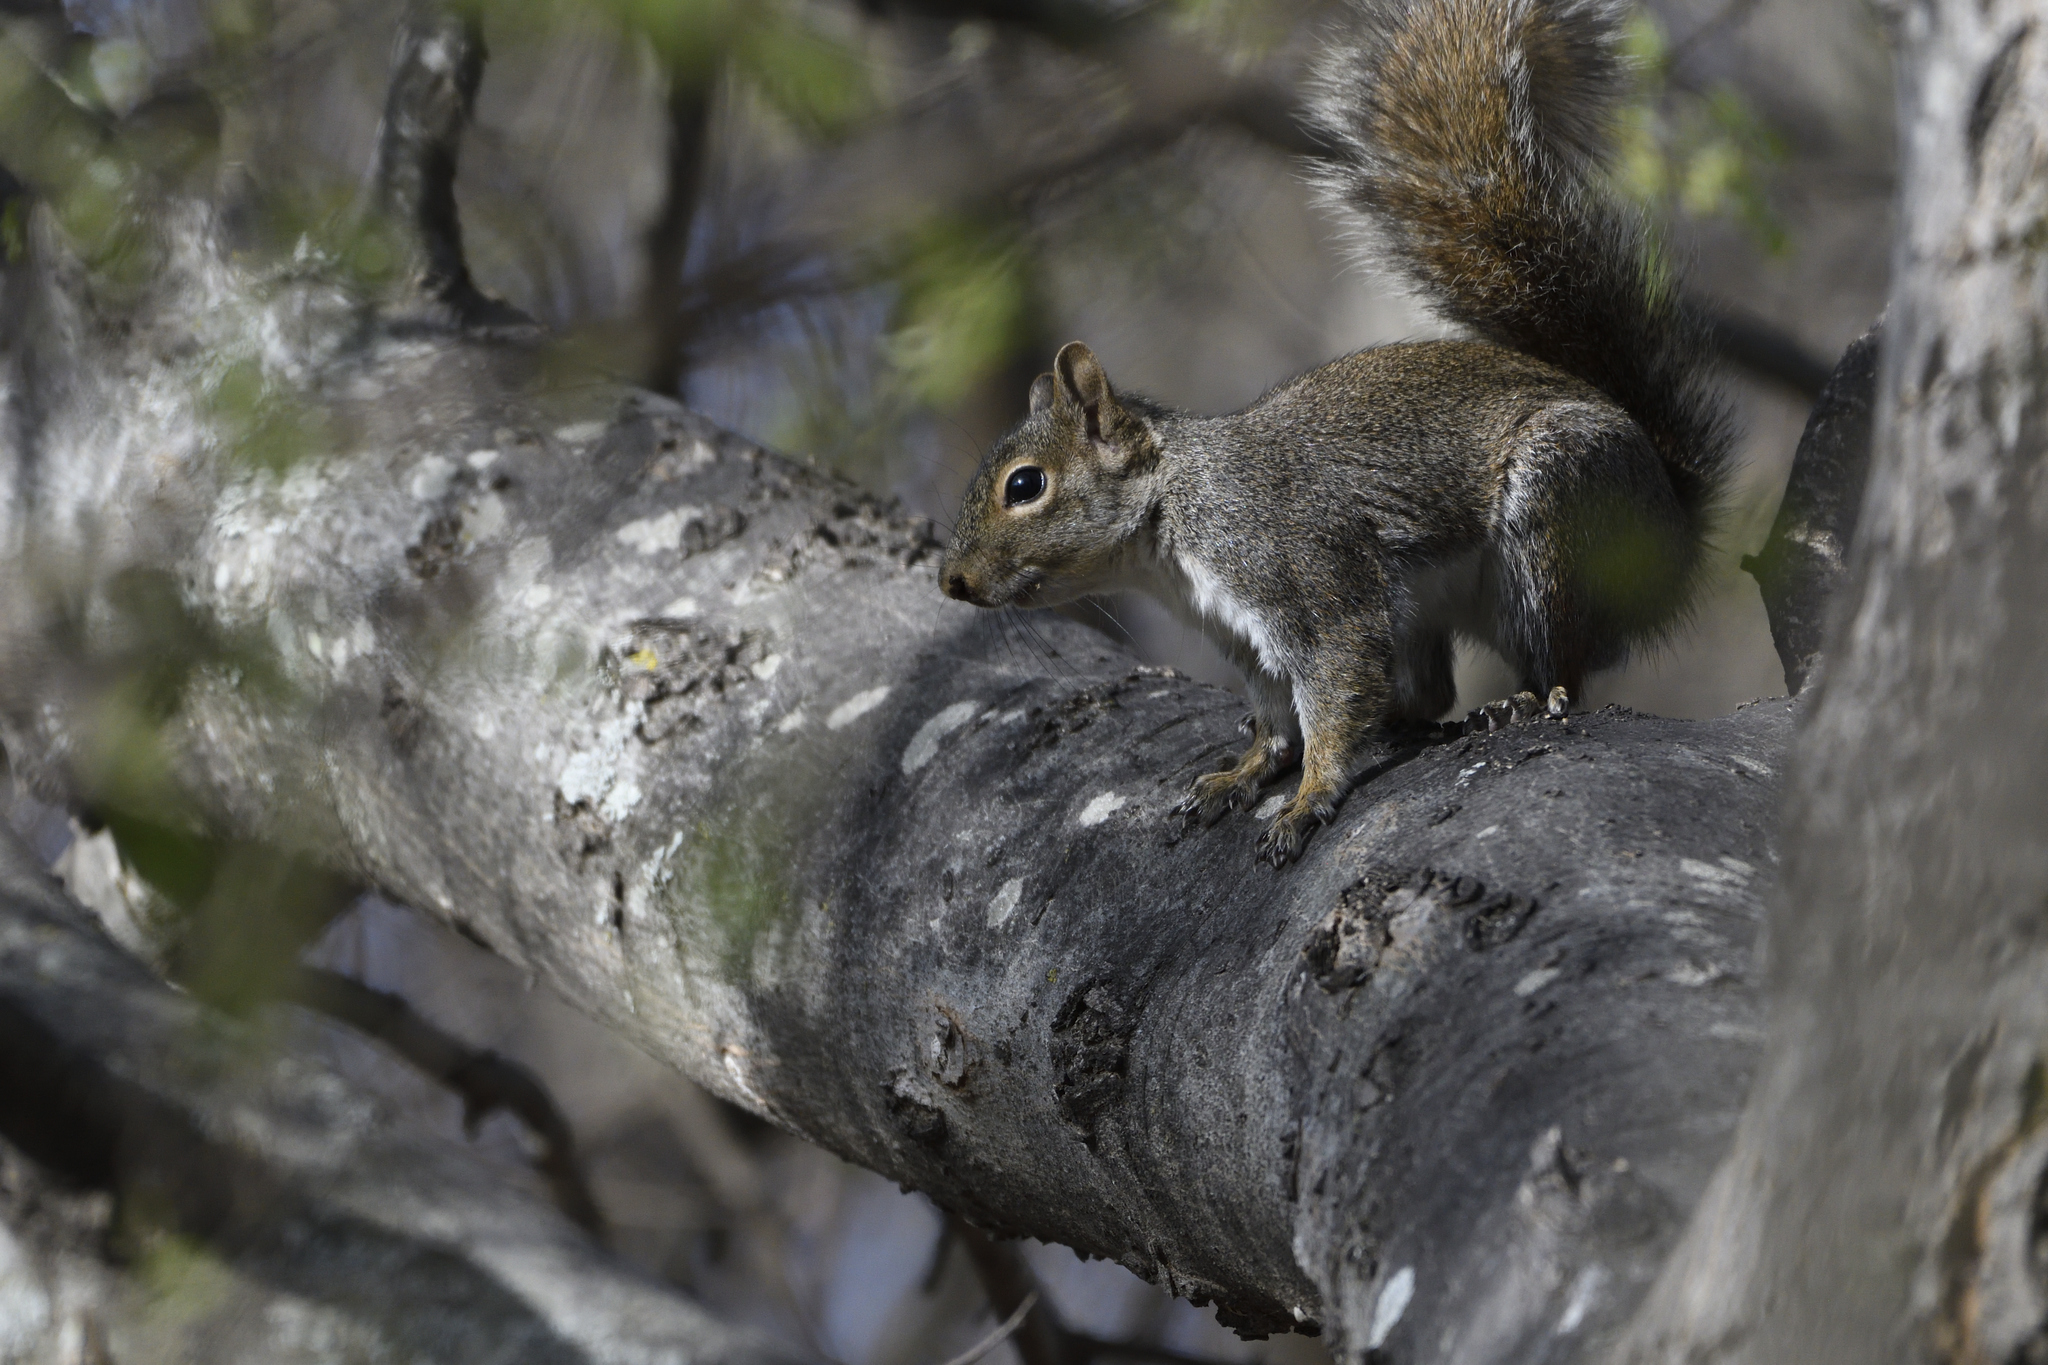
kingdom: Animalia
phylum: Chordata
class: Mammalia
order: Rodentia
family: Sciuridae
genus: Sciurus
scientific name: Sciurus alleni
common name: Allen's squirrel
